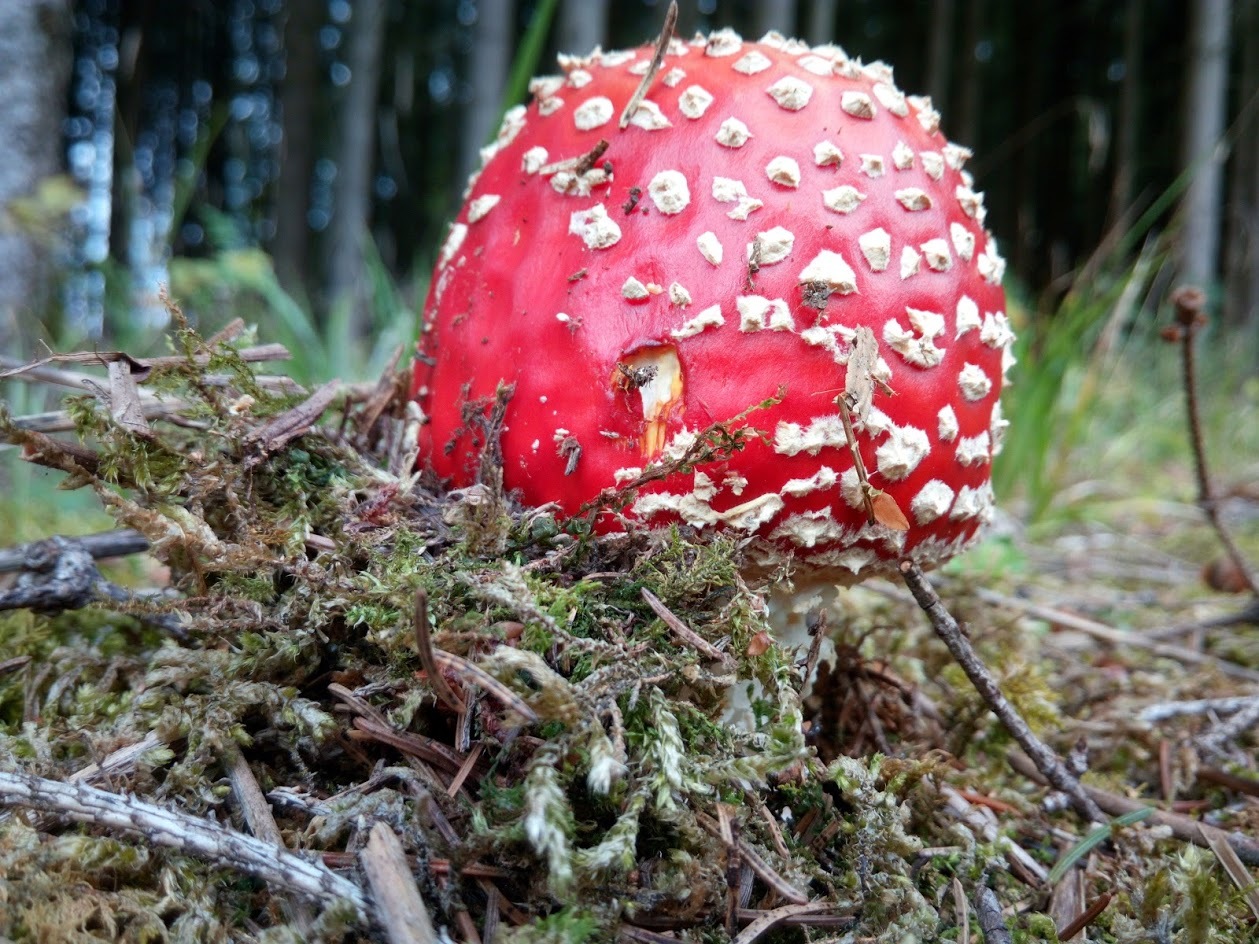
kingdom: Fungi
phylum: Basidiomycota
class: Agaricomycetes
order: Agaricales
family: Amanitaceae
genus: Amanita
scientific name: Amanita muscaria
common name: Fly agaric
